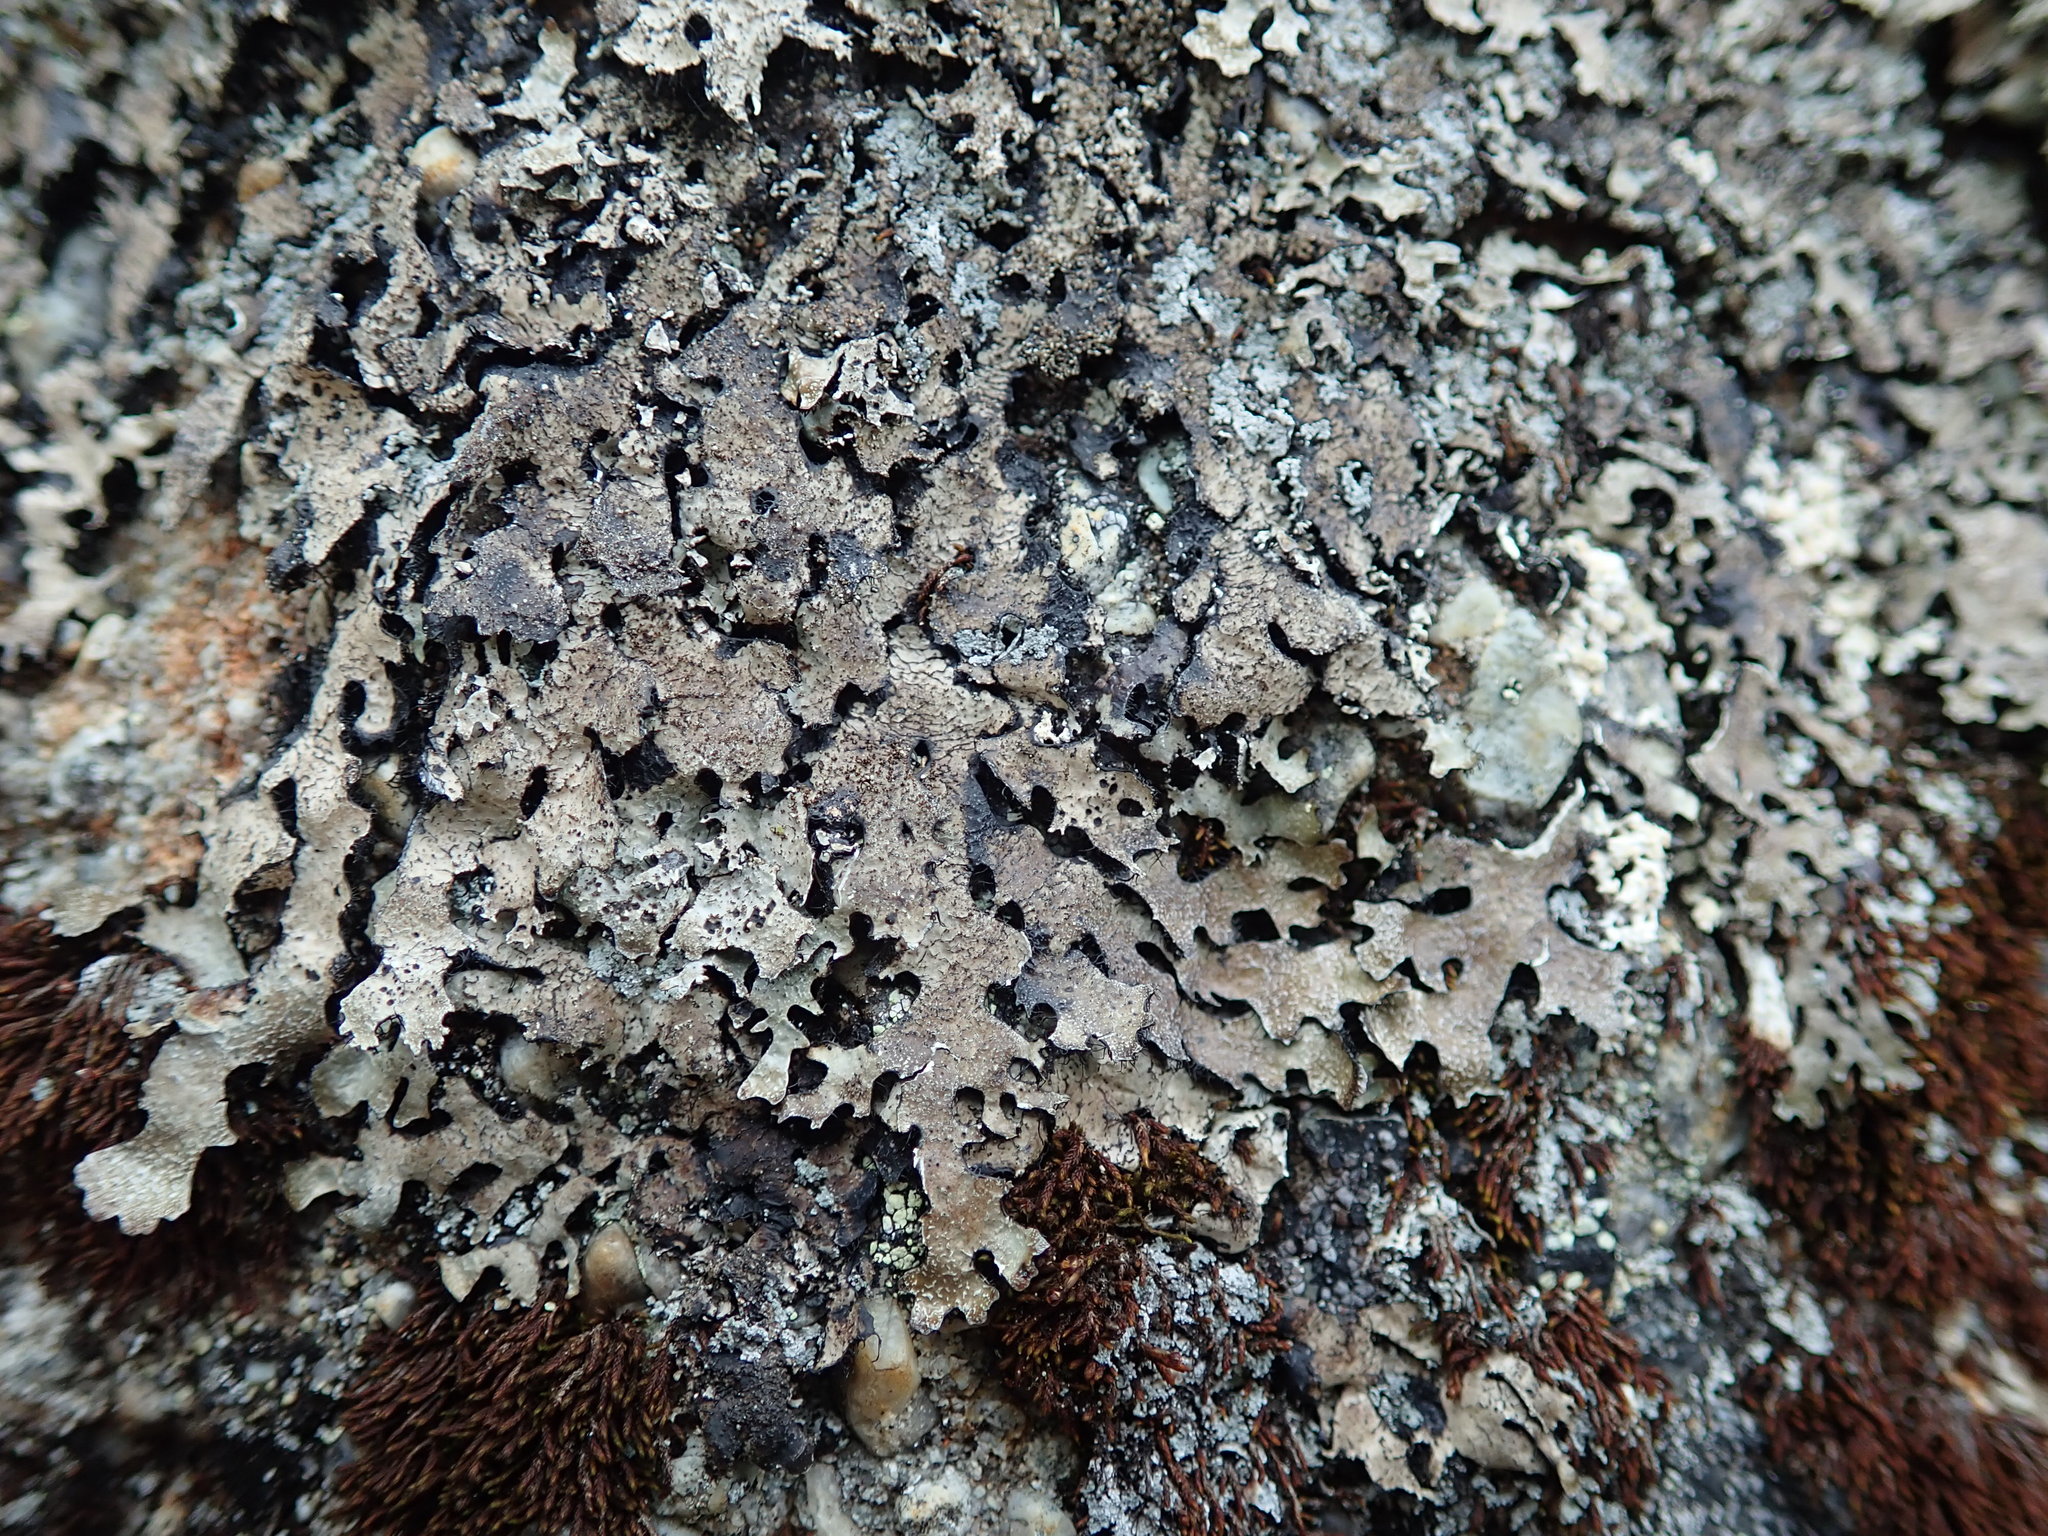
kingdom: Fungi
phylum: Ascomycota
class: Lecanoromycetes
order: Lecanorales
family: Parmeliaceae
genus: Parmelia
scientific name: Parmelia saxatilis
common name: Salted shield lichen
